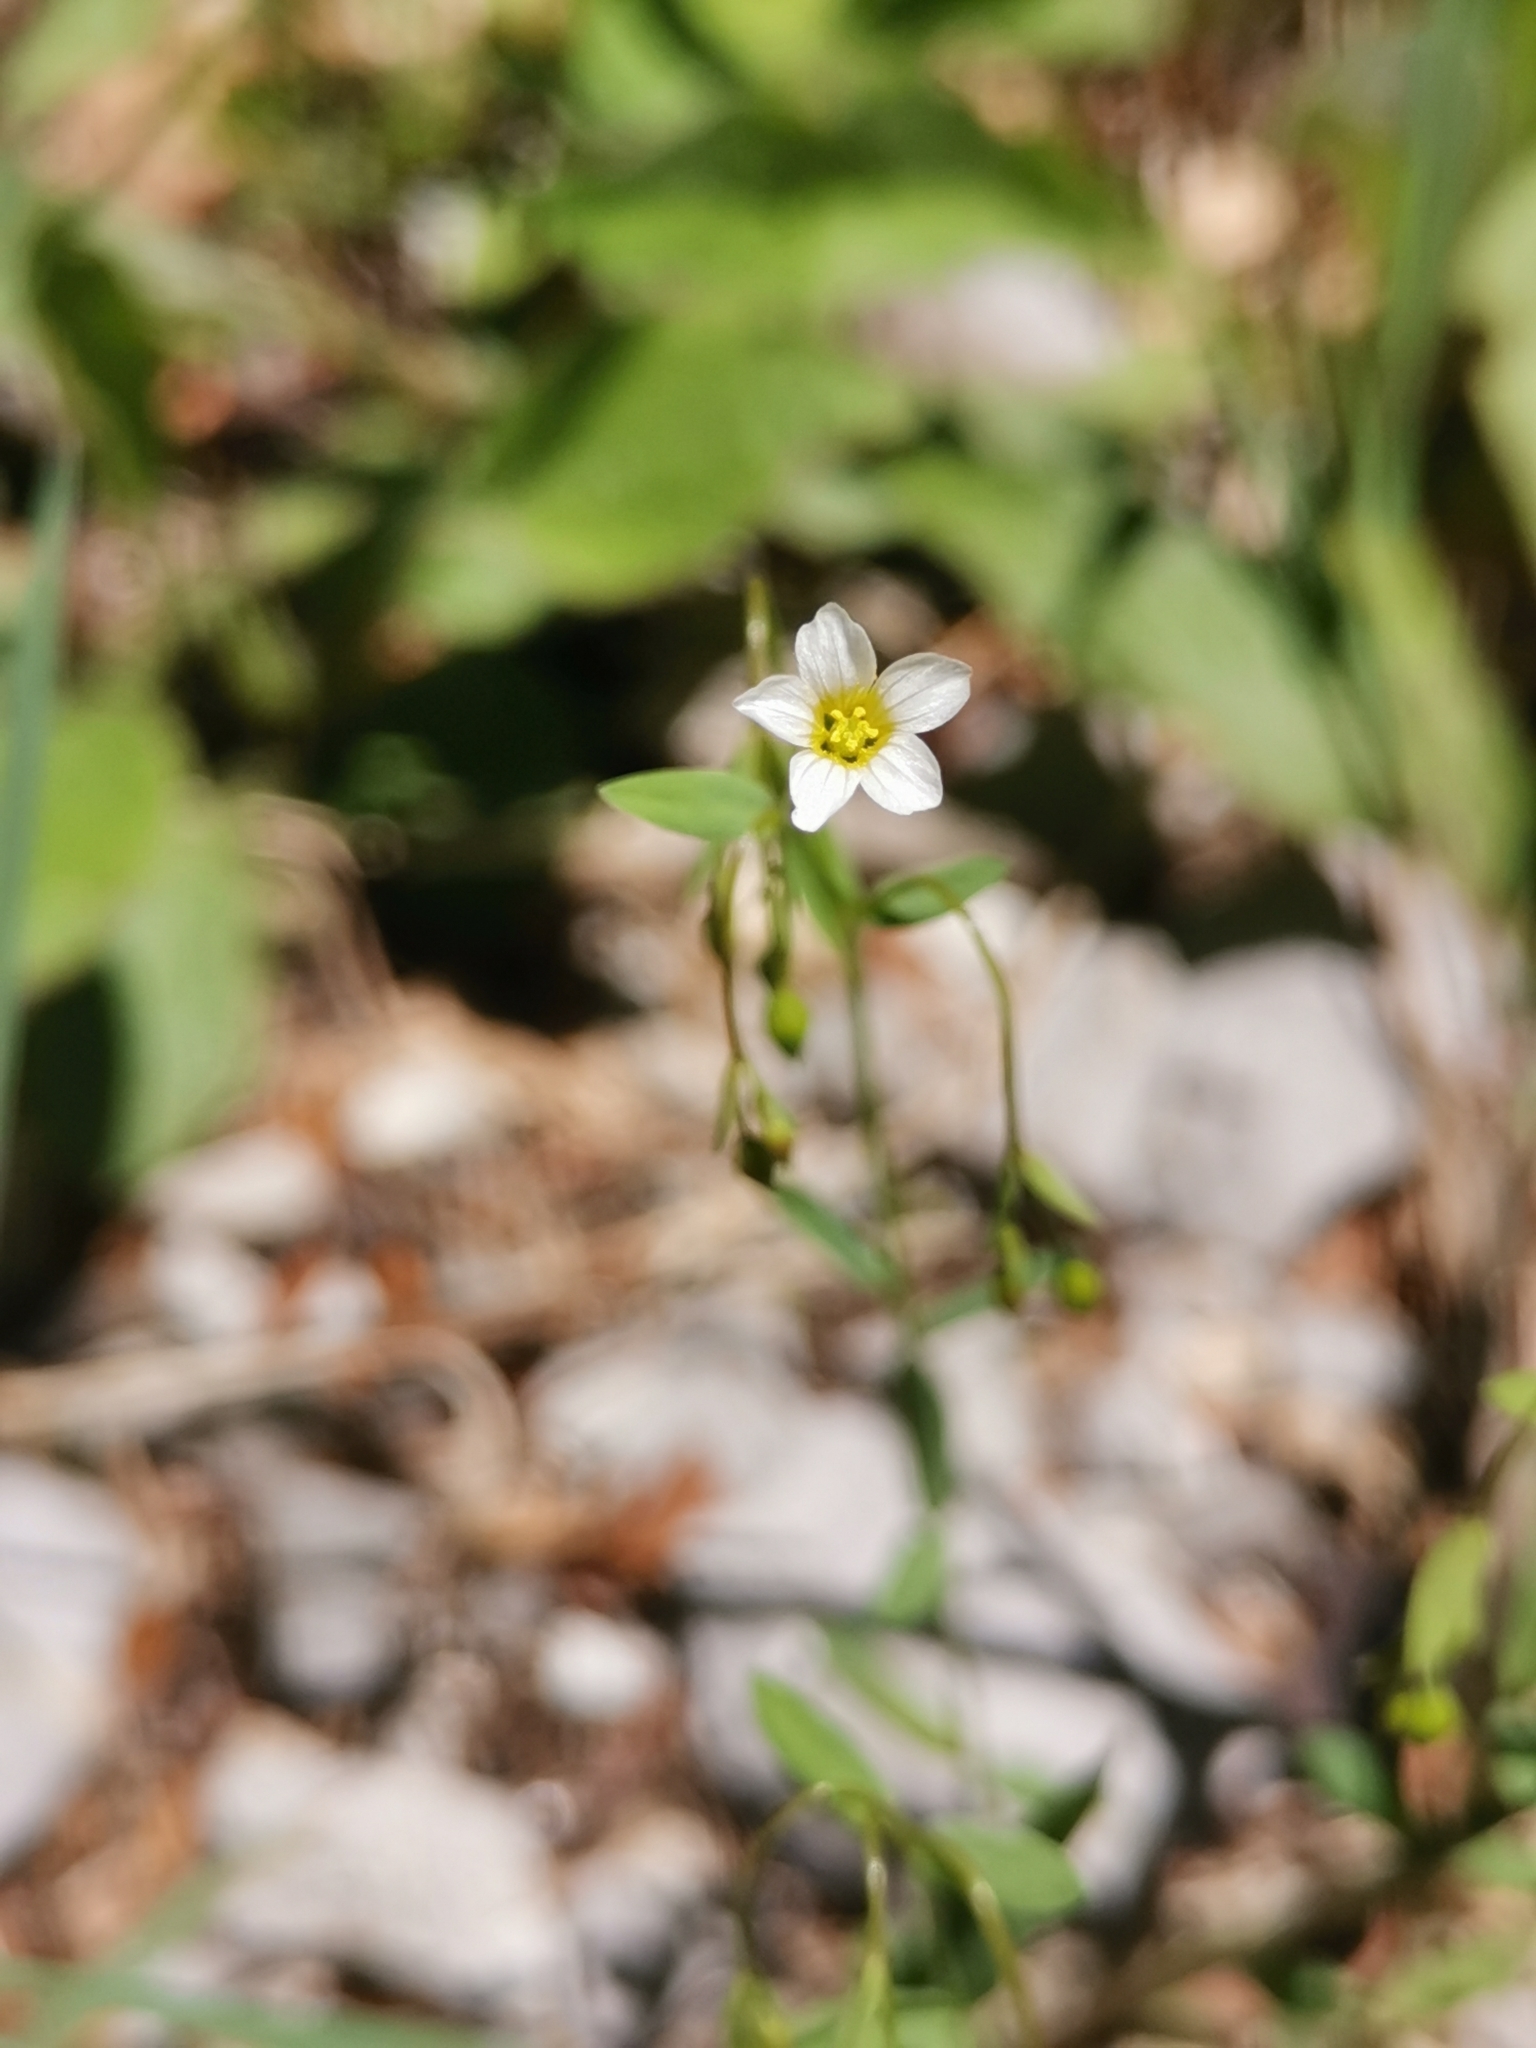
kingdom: Plantae
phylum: Tracheophyta
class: Magnoliopsida
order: Malpighiales
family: Linaceae
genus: Linum
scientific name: Linum catharticum
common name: Fairy flax
